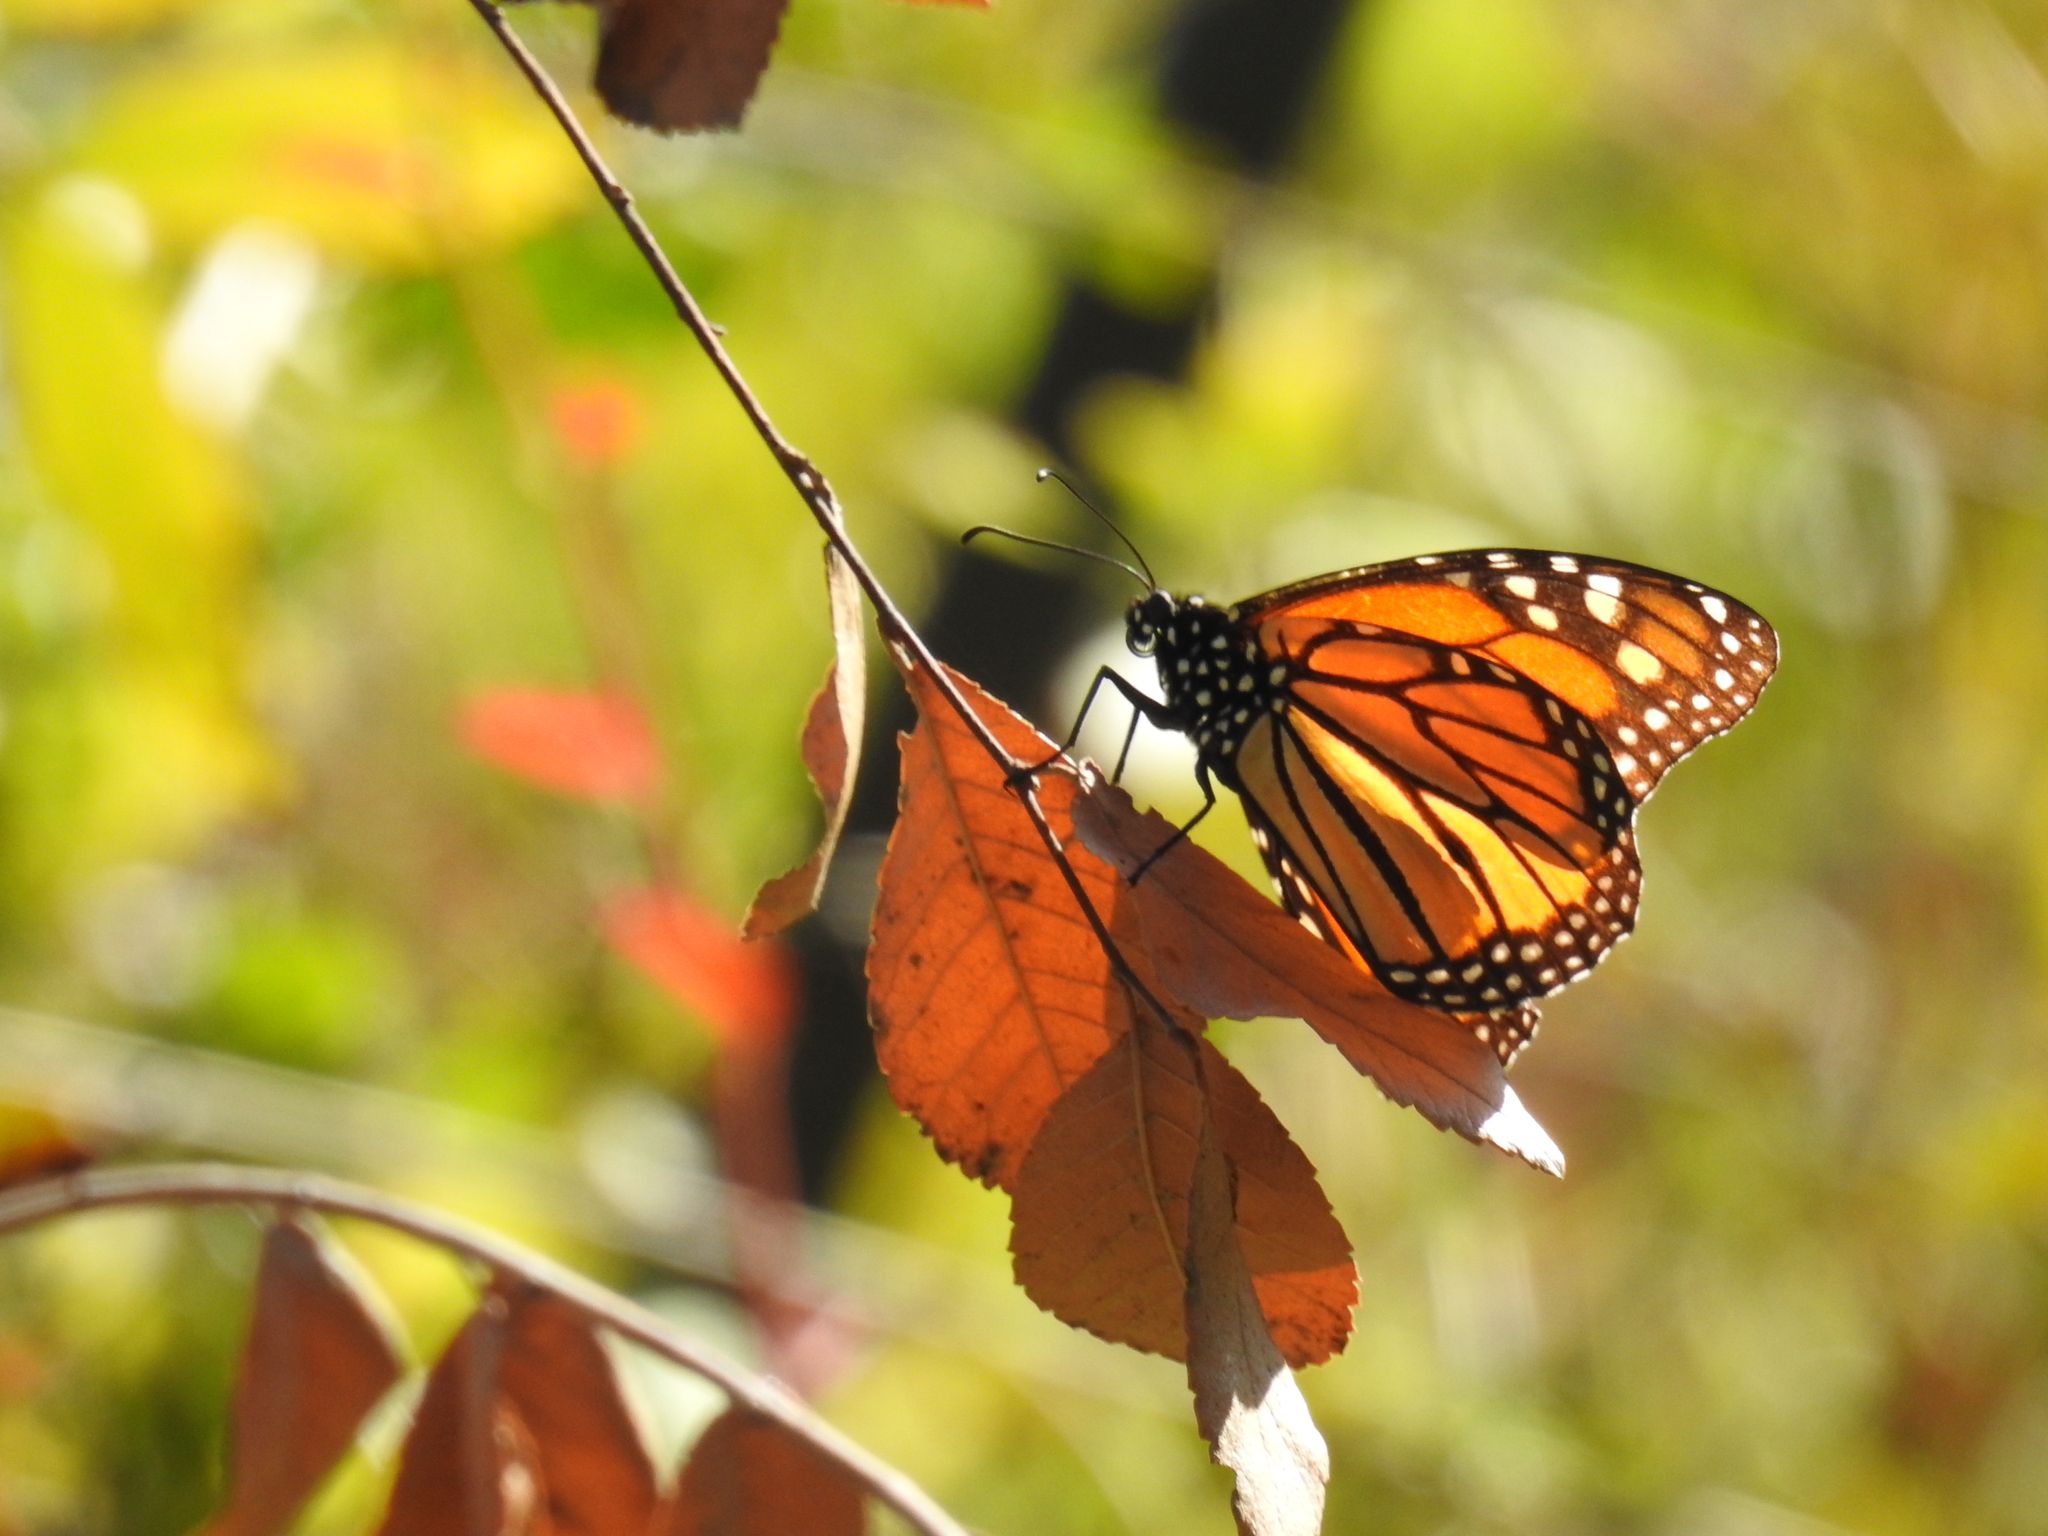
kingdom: Animalia
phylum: Arthropoda
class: Insecta
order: Lepidoptera
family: Nymphalidae
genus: Danaus
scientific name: Danaus plexippus
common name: Monarch
